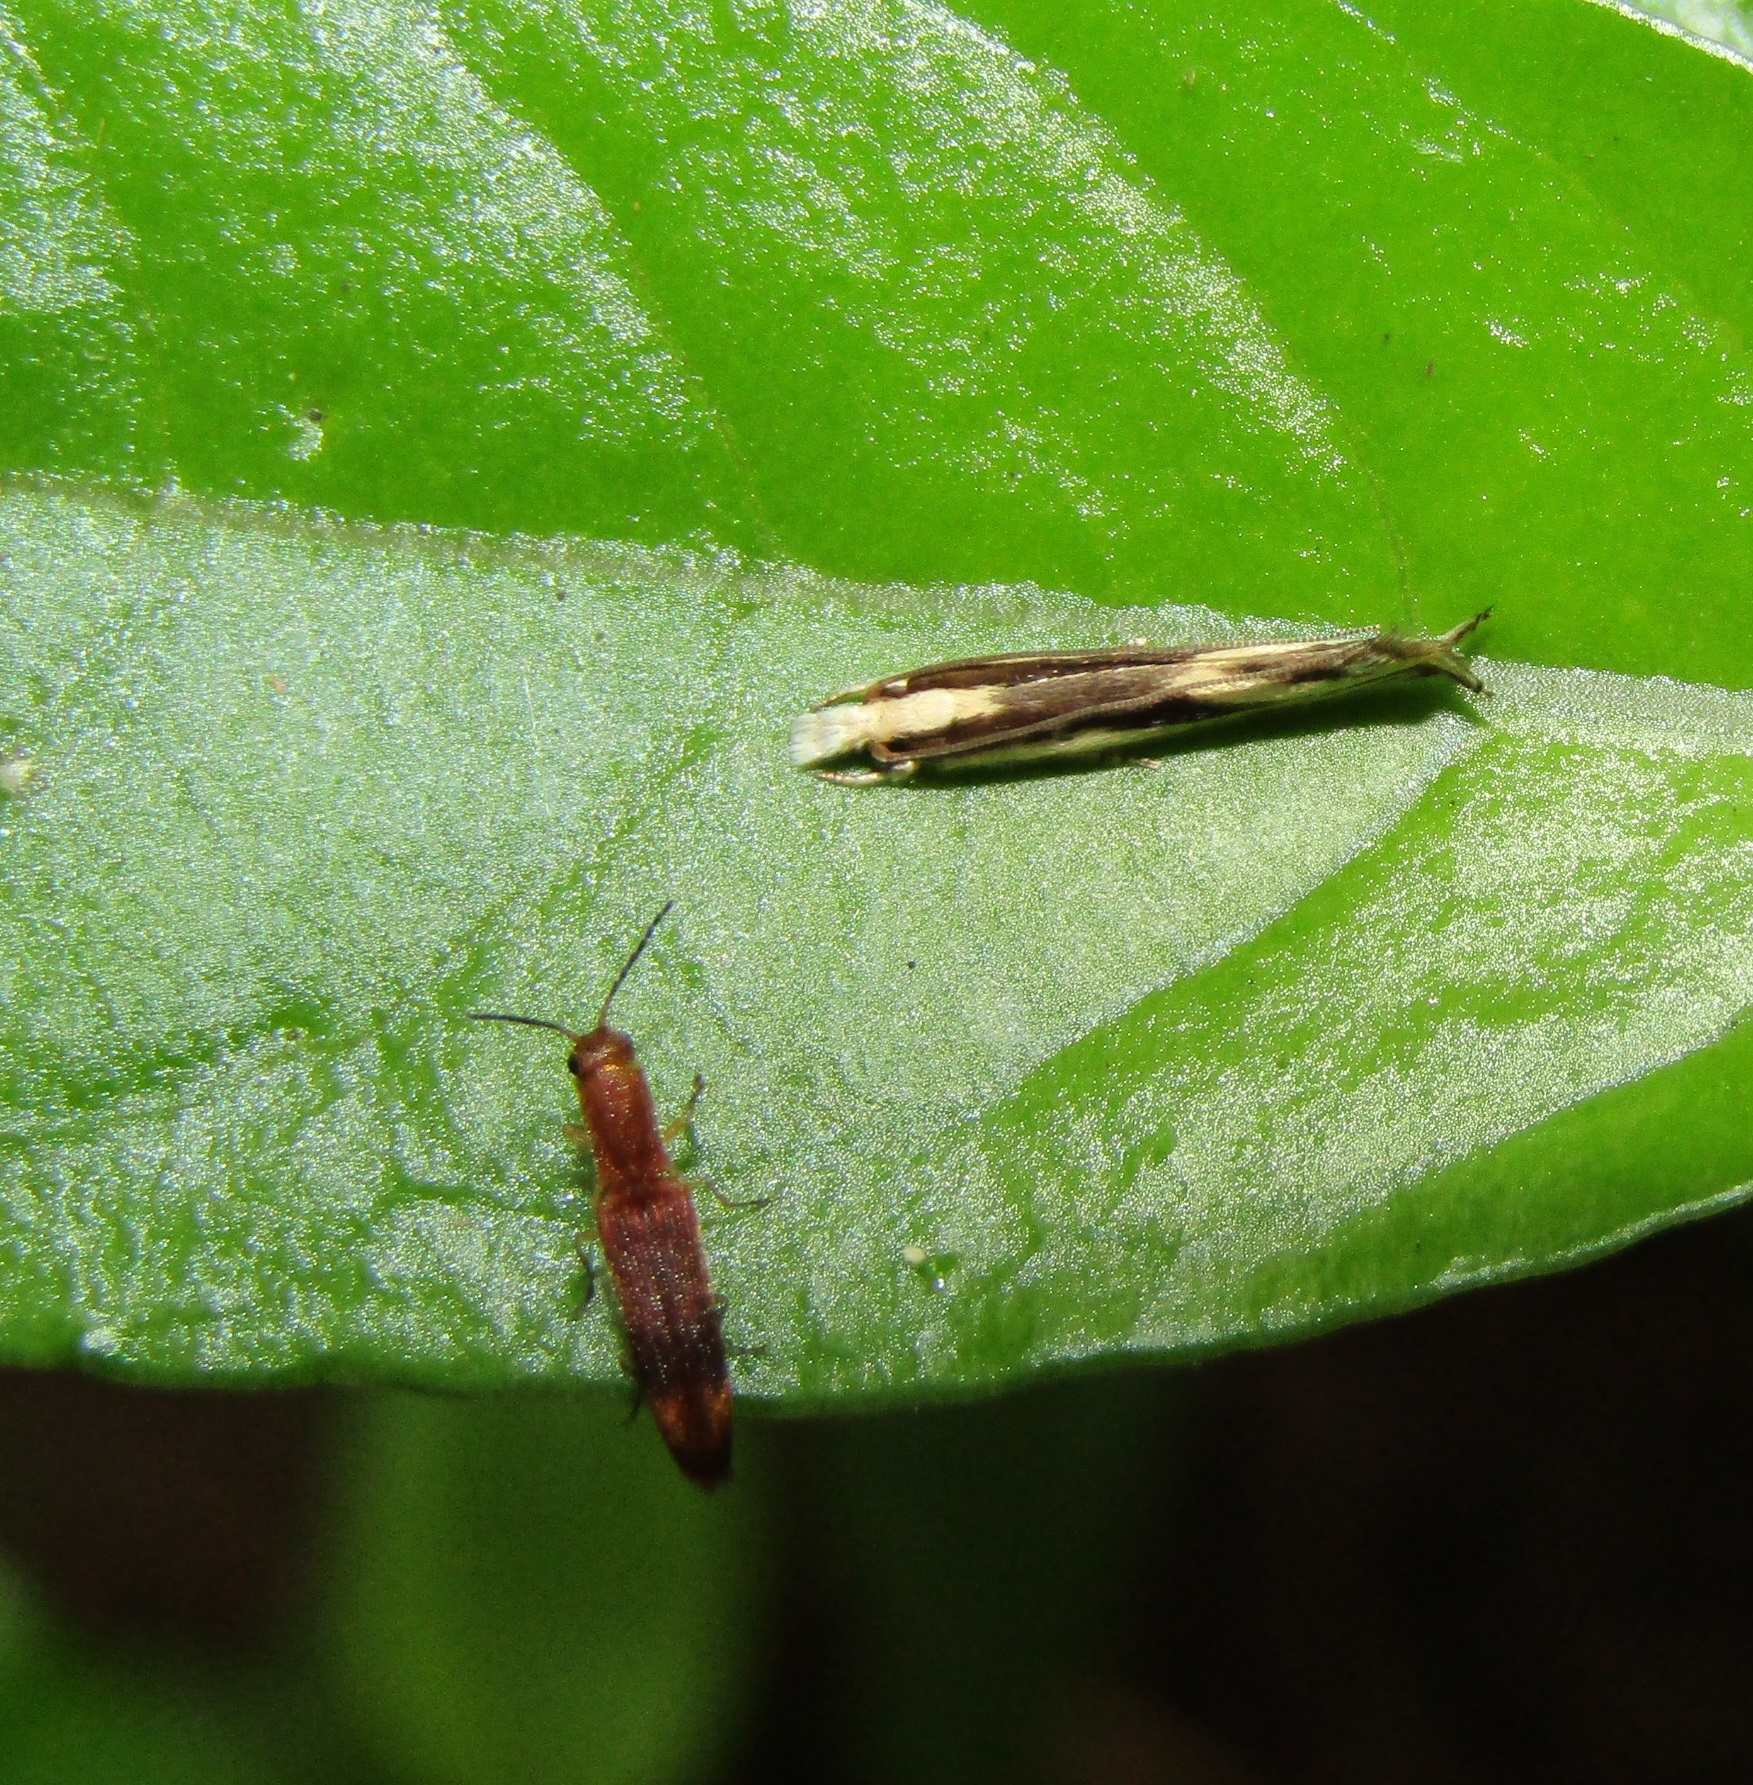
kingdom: Animalia
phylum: Arthropoda
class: Insecta
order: Lepidoptera
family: Tineidae
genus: Erechthias
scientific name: Erechthias chasmatias
